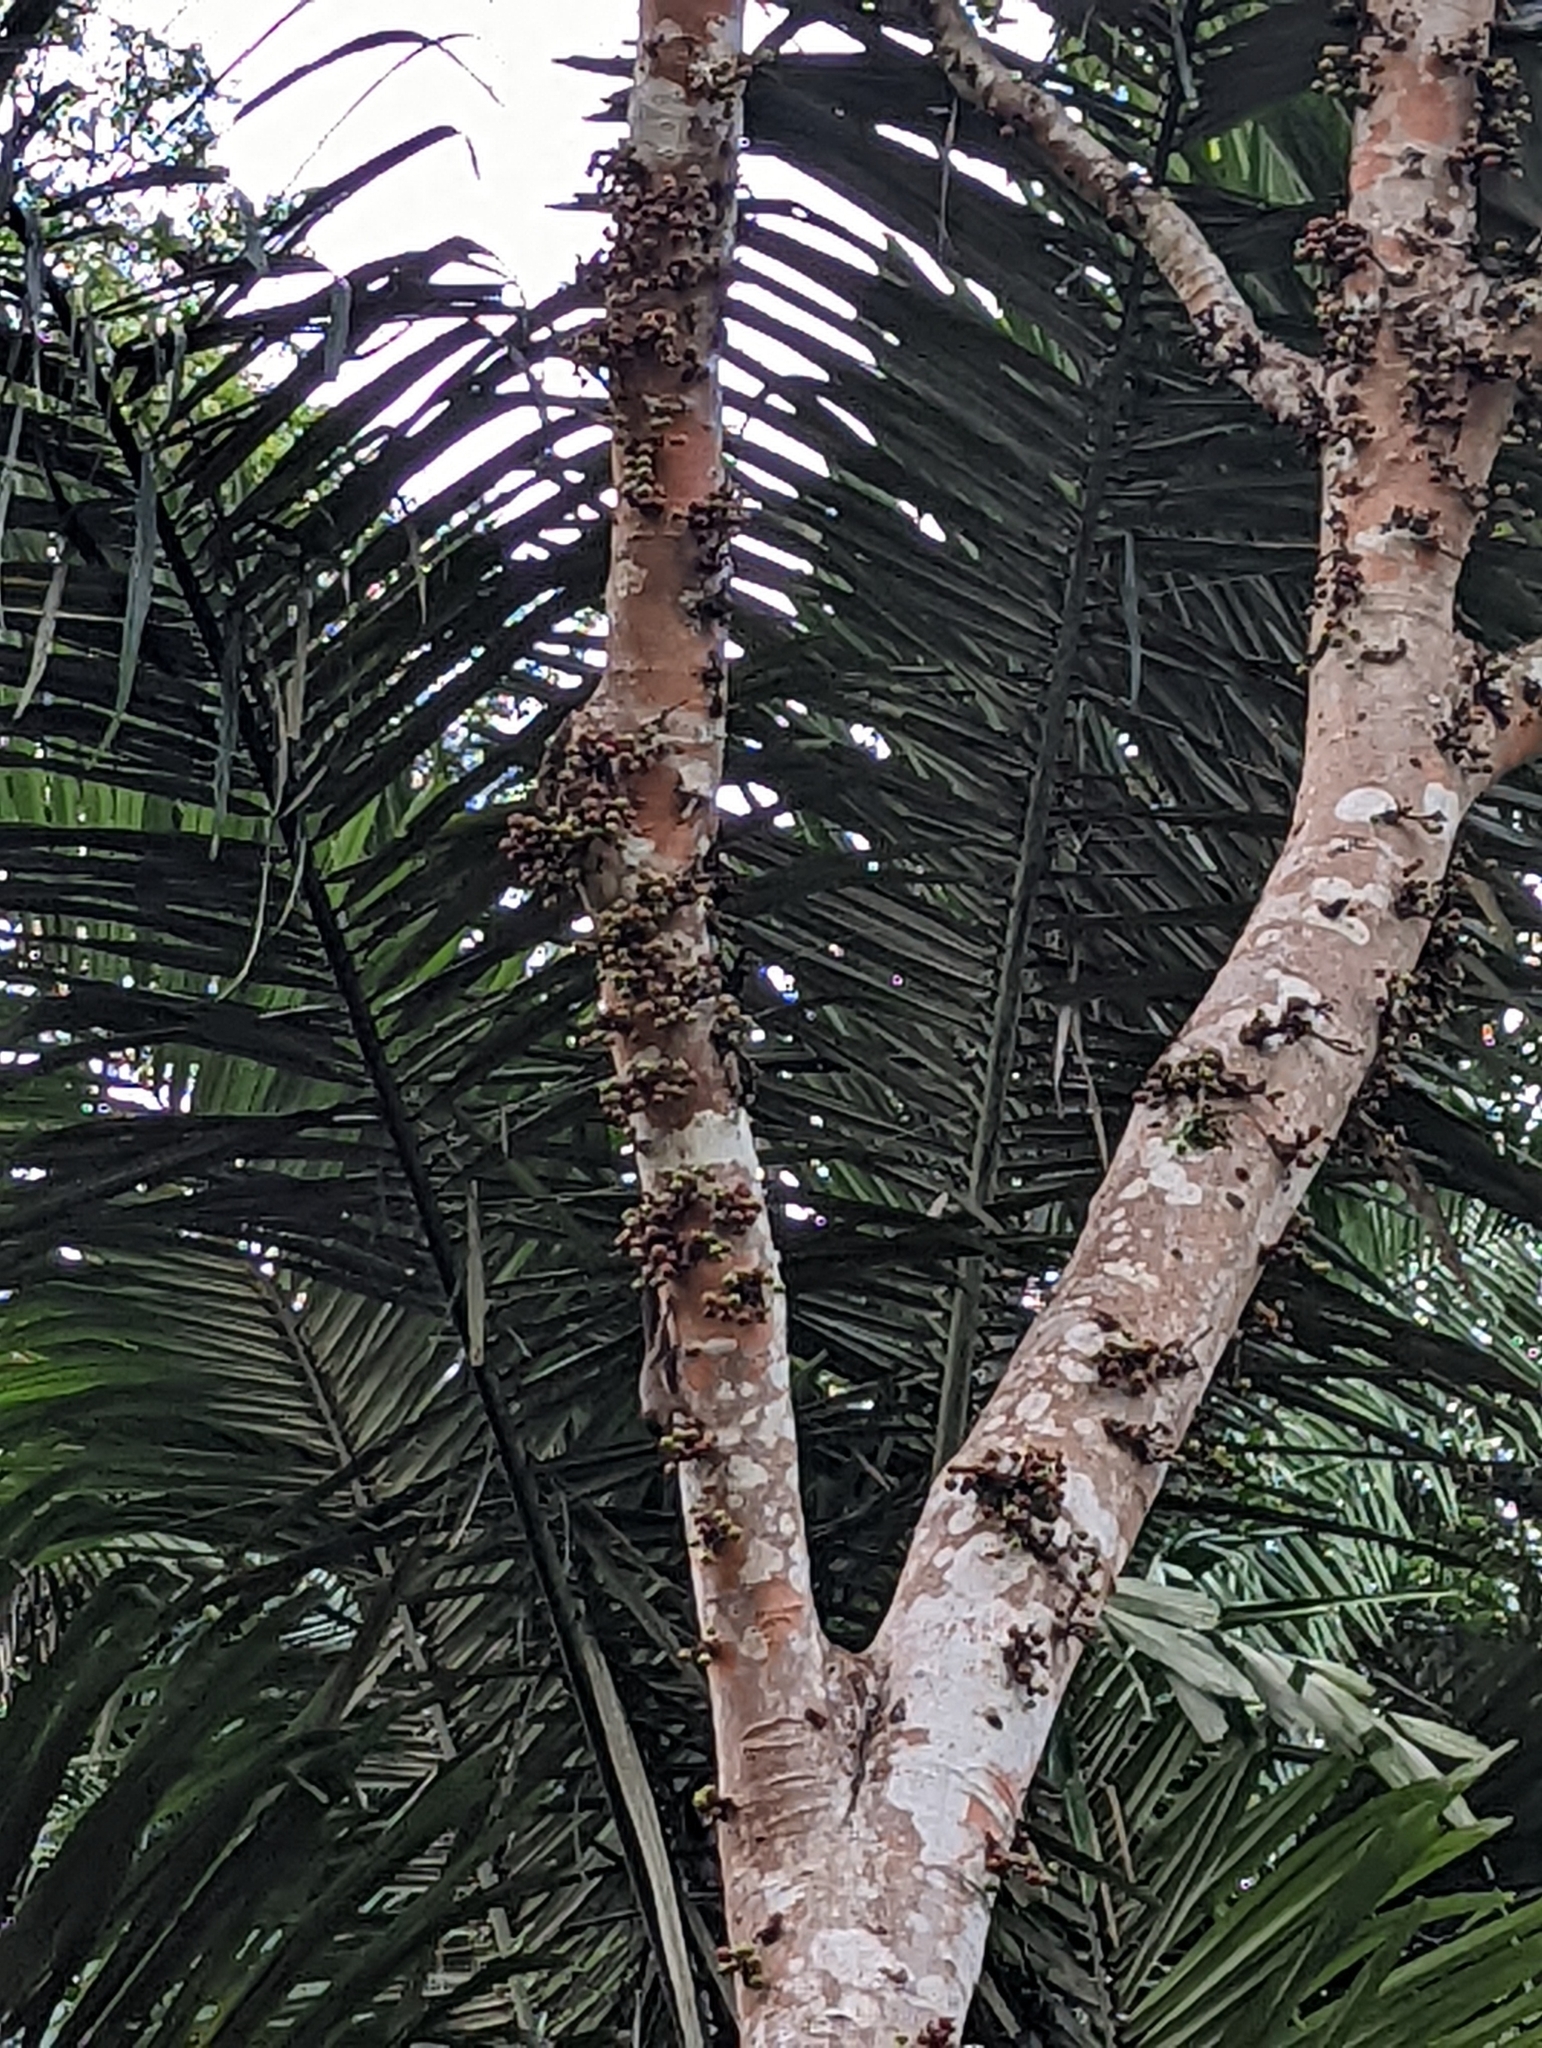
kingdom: Animalia
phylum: Chordata
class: Mammalia
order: Rodentia
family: Sciuridae
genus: Callosciurus
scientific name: Callosciurus notatus
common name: Plantain squirrel
